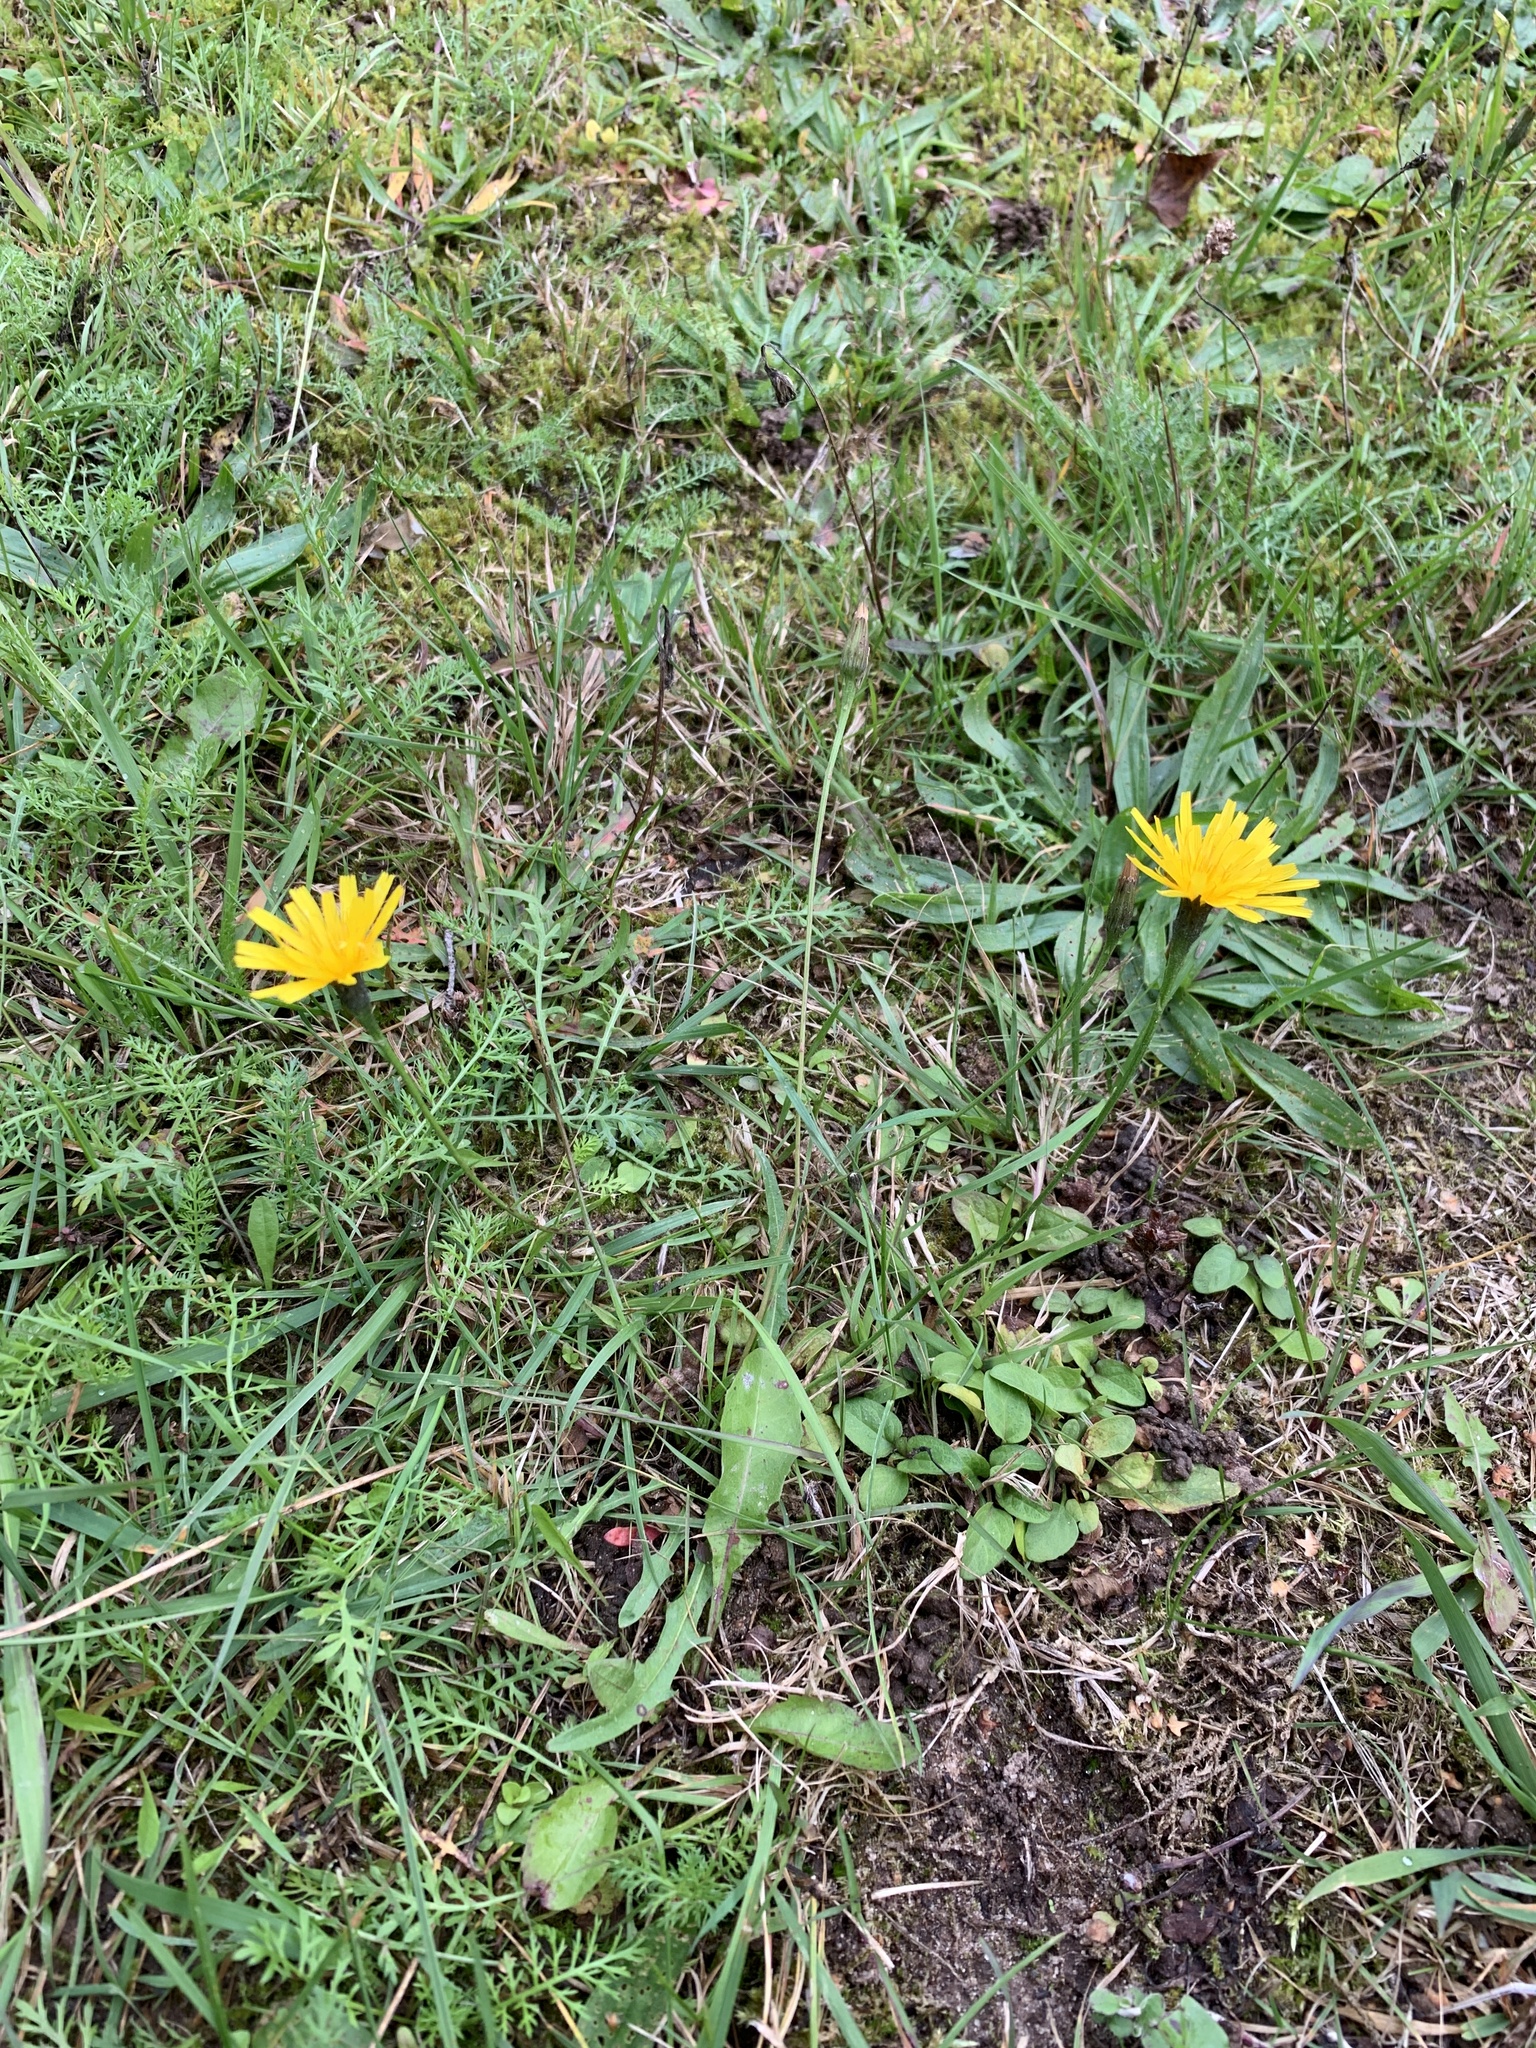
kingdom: Plantae
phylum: Tracheophyta
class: Magnoliopsida
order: Asterales
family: Asteraceae
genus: Scorzoneroides
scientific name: Scorzoneroides autumnalis
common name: Autumn hawkbit
